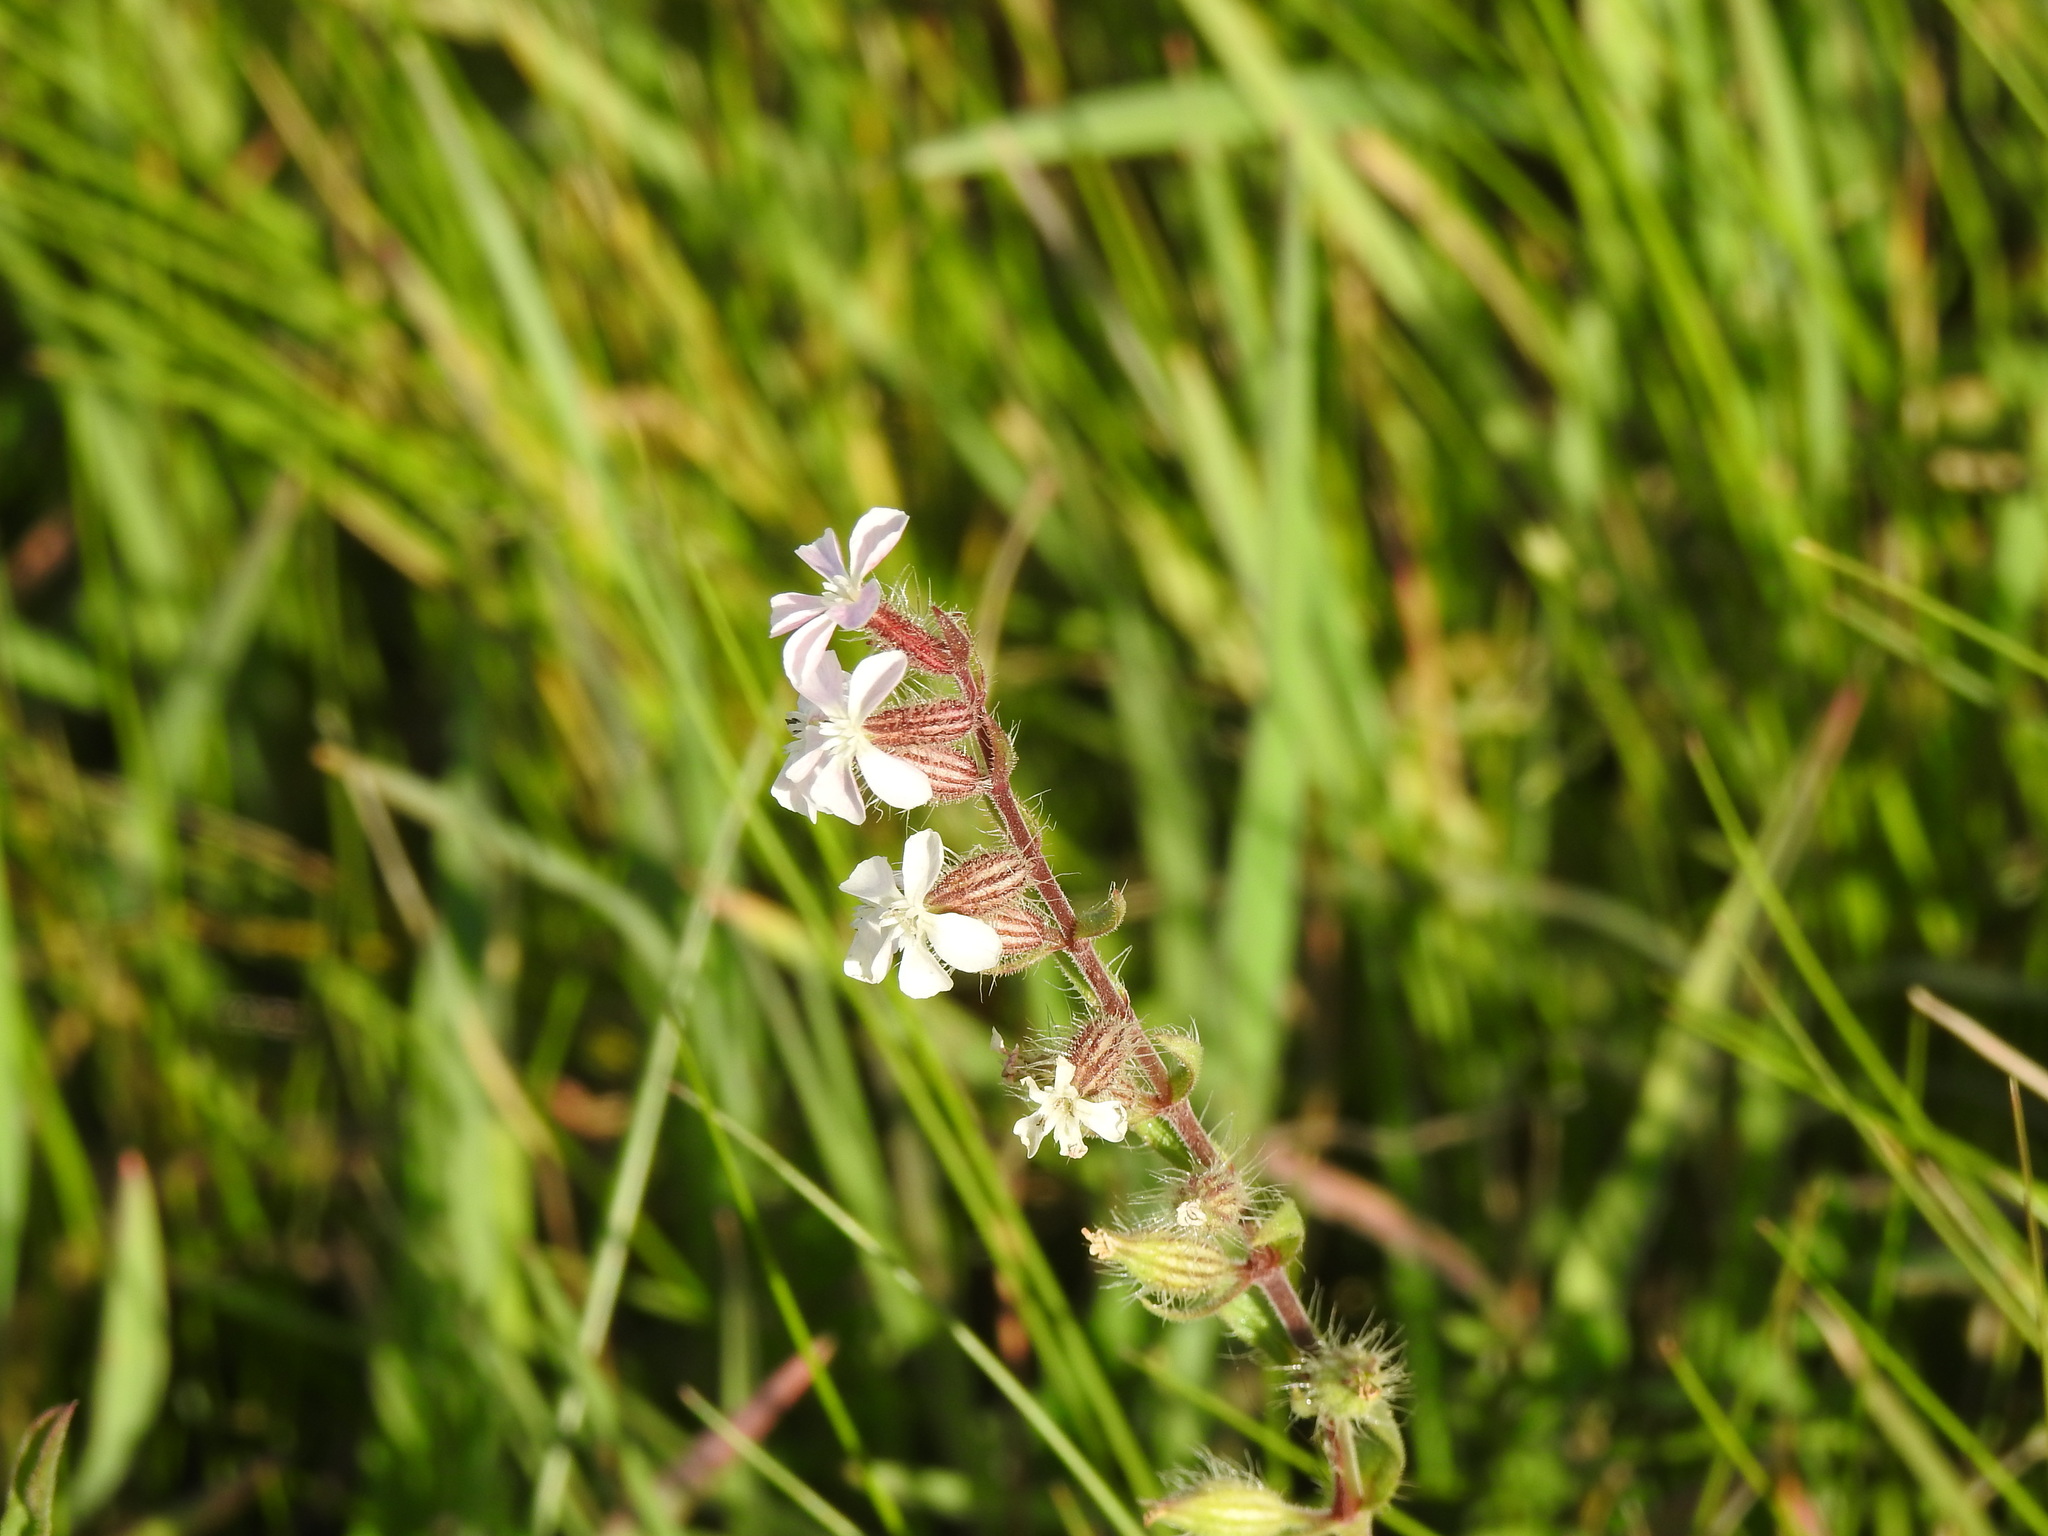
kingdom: Plantae
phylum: Tracheophyta
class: Magnoliopsida
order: Caryophyllales
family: Caryophyllaceae
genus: Silene
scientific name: Silene gallica
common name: Small-flowered catchfly
